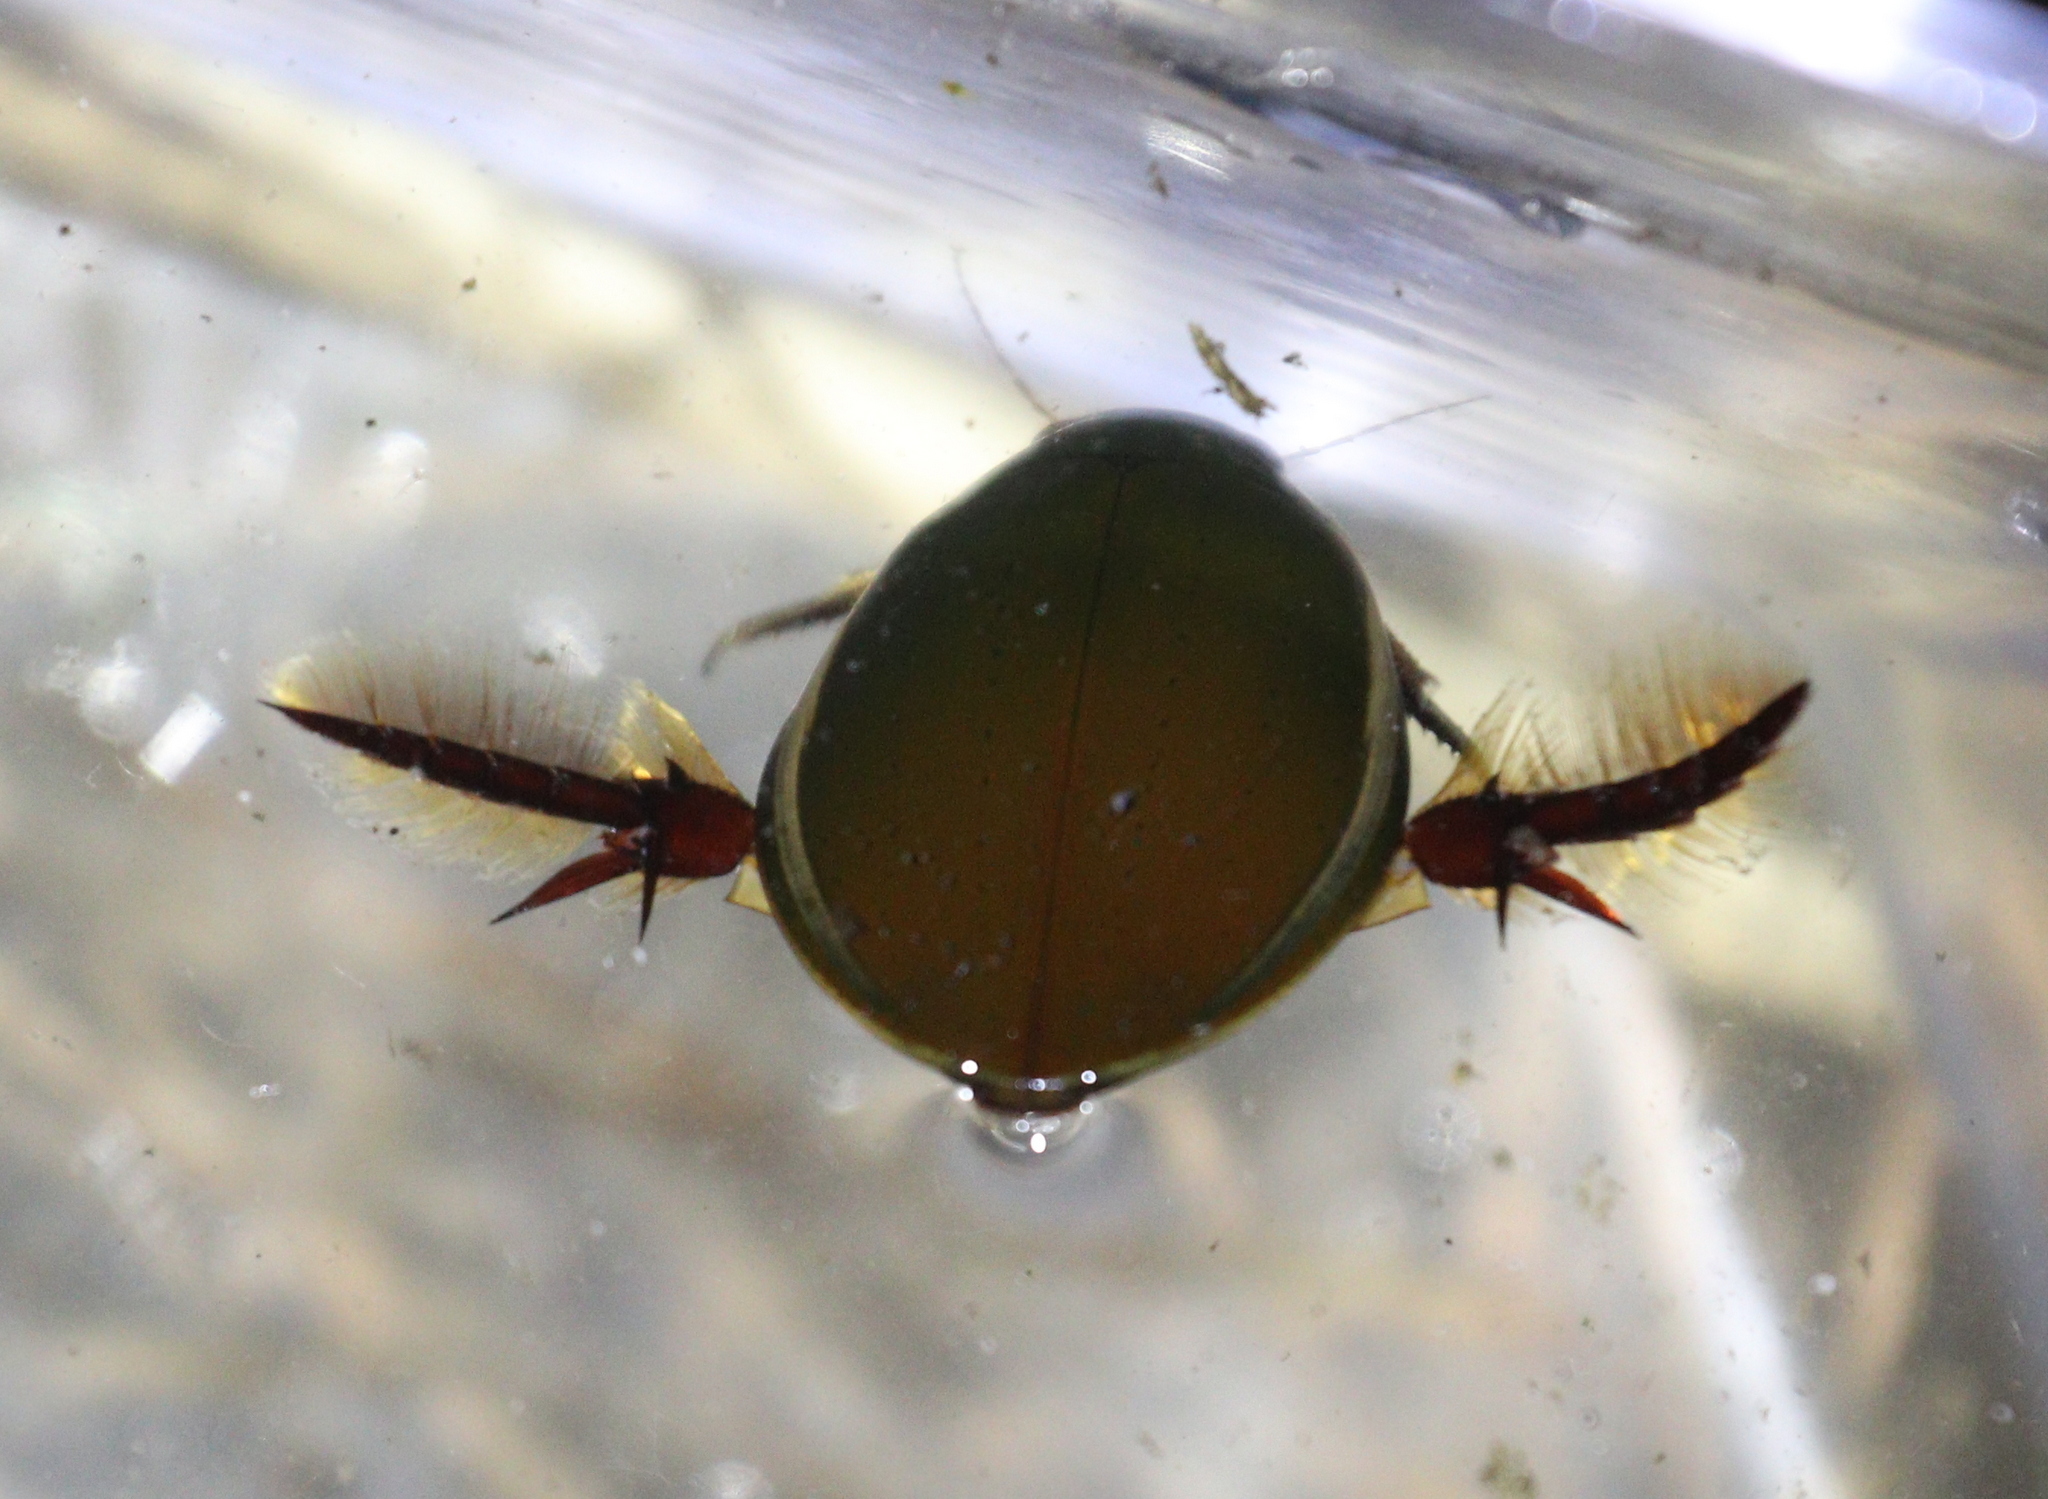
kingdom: Animalia
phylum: Arthropoda
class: Insecta
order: Coleoptera
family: Dytiscidae
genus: Cybister
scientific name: Cybister lateralimarginalis
